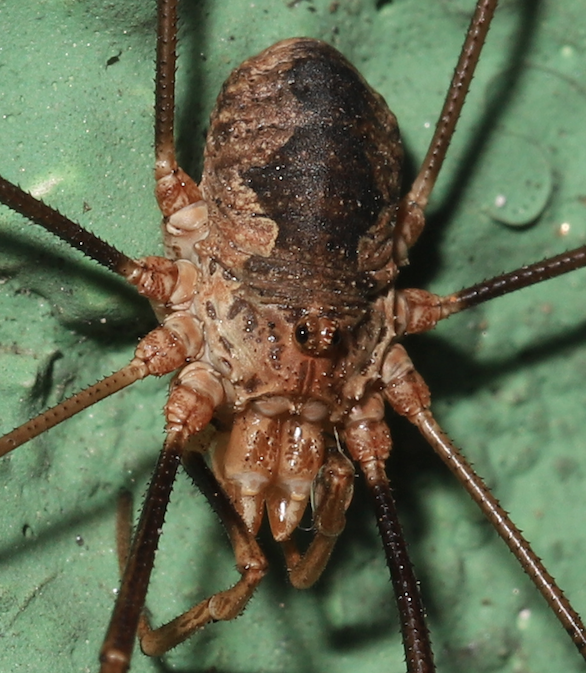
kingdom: Animalia
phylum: Arthropoda
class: Arachnida
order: Opiliones
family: Phalangiidae
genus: Phalangium
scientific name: Phalangium opilio
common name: Daddy longleg
